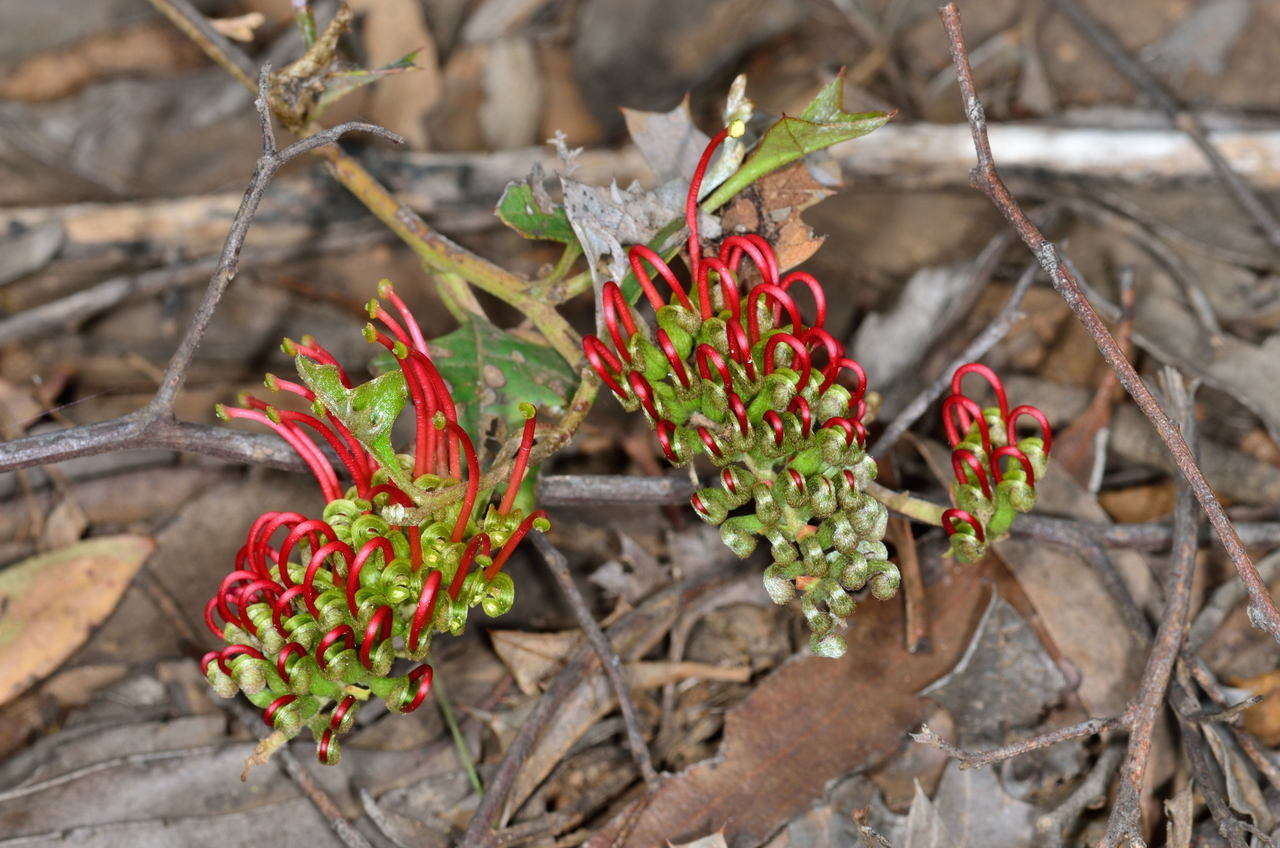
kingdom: Plantae
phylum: Tracheophyta
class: Magnoliopsida
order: Proteales
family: Proteaceae
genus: Grevillea
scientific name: Grevillea steiglitziana
